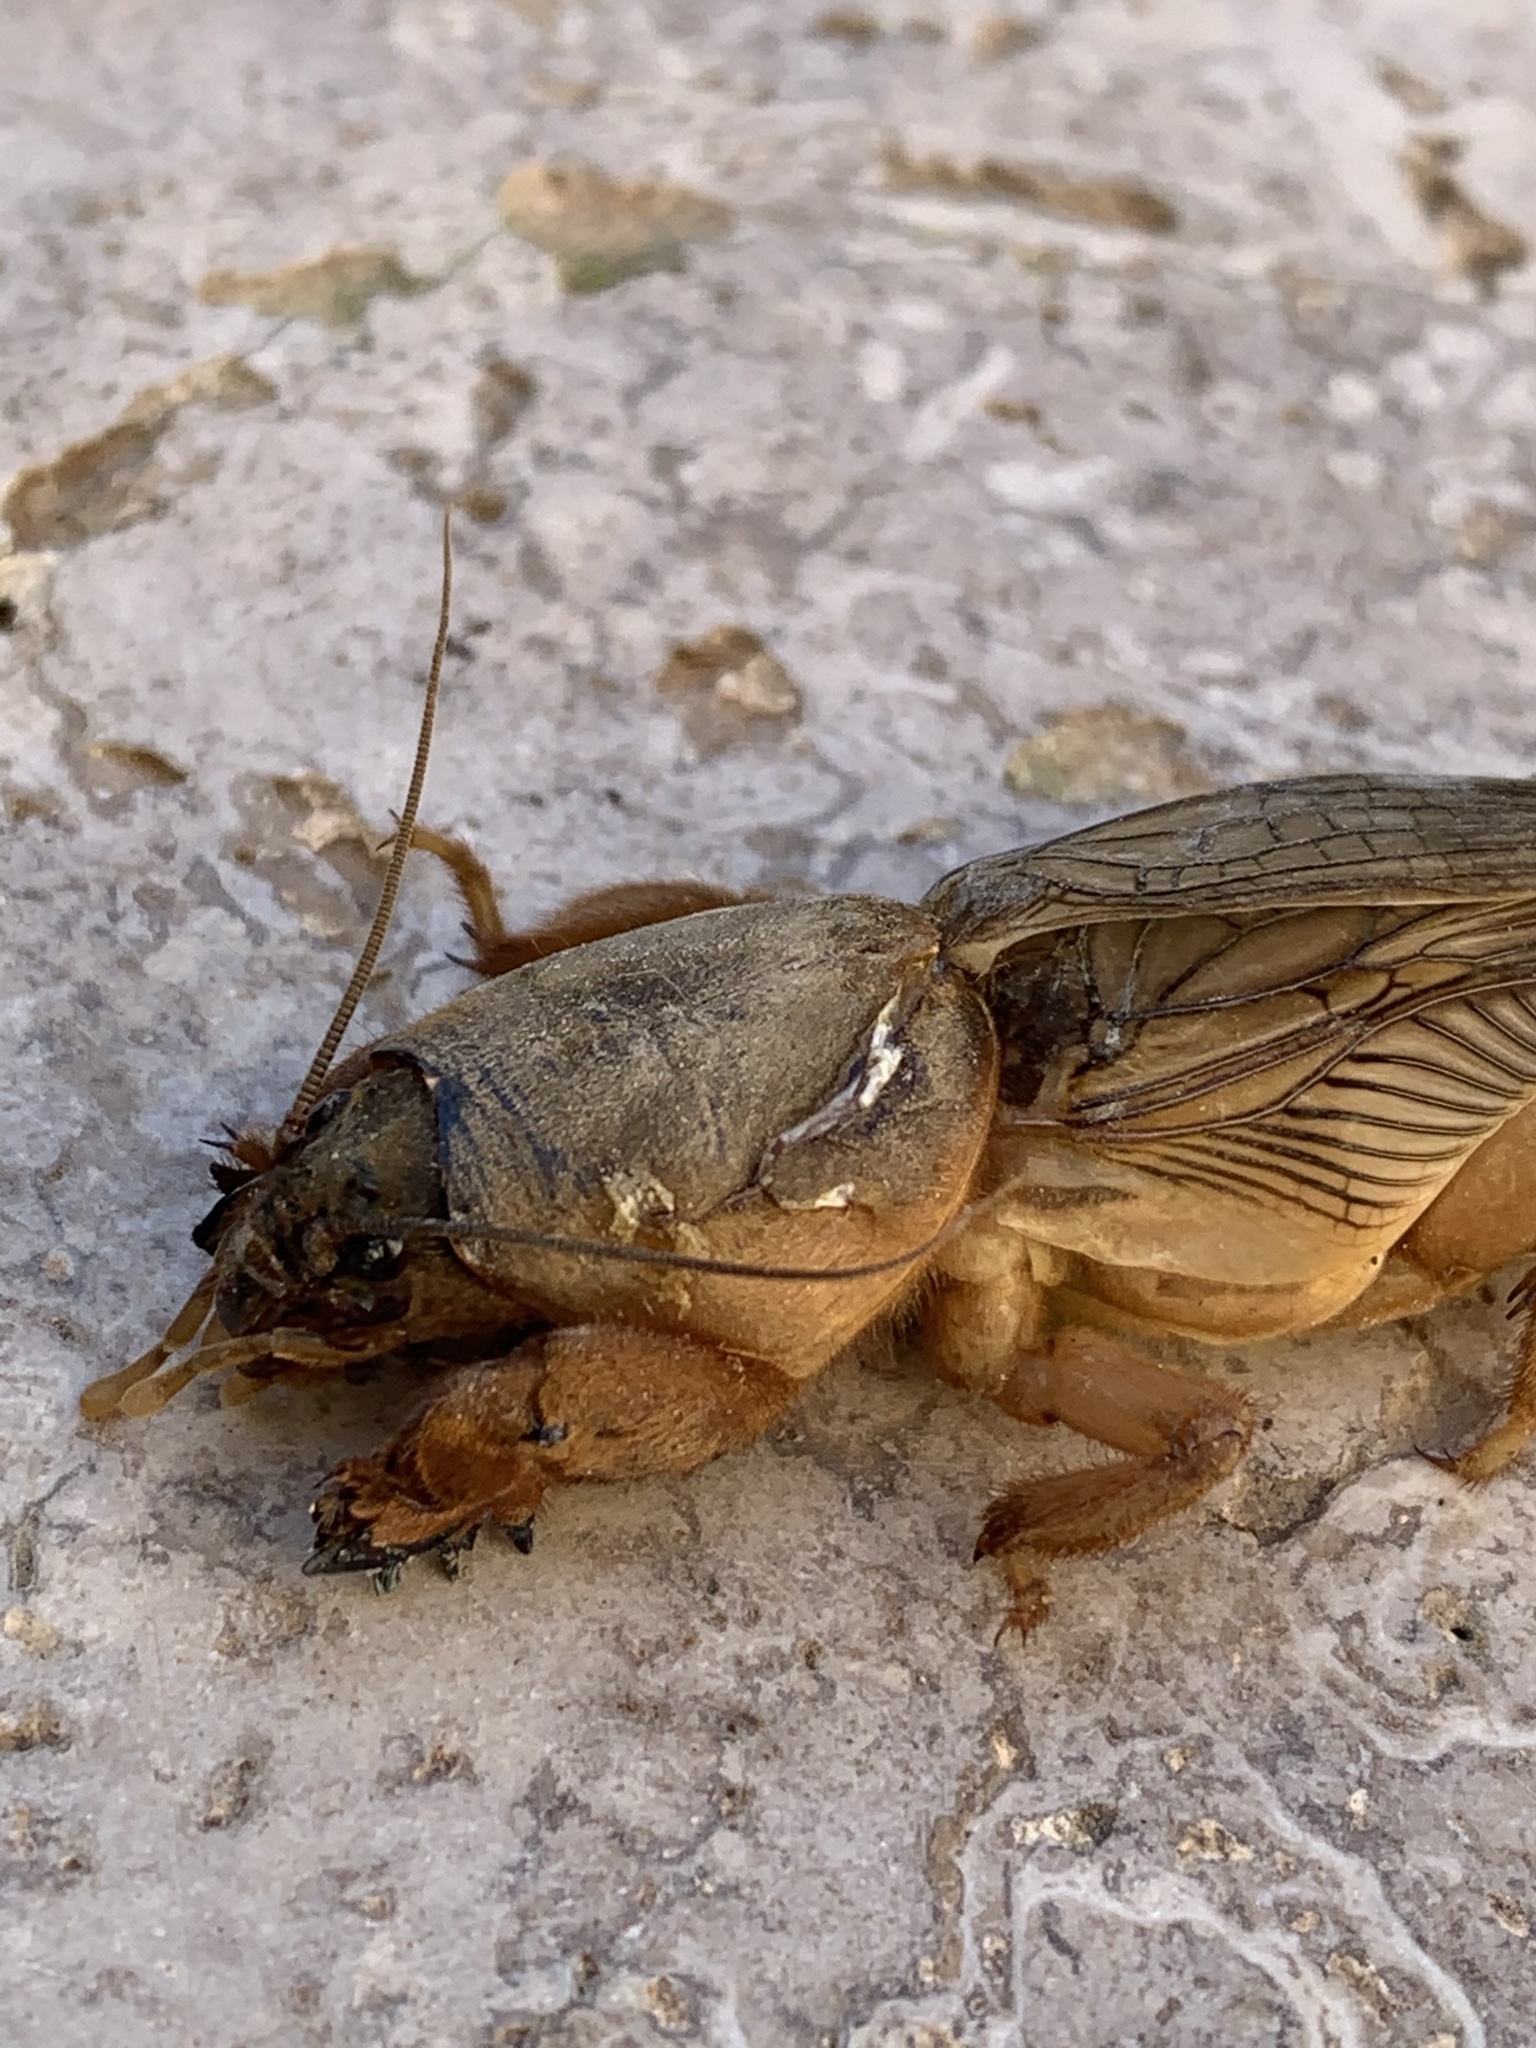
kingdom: Animalia
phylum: Arthropoda
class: Insecta
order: Orthoptera
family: Gryllotalpidae
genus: Gryllotalpa
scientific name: Gryllotalpa vineae
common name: Vineyard mole-cricket
